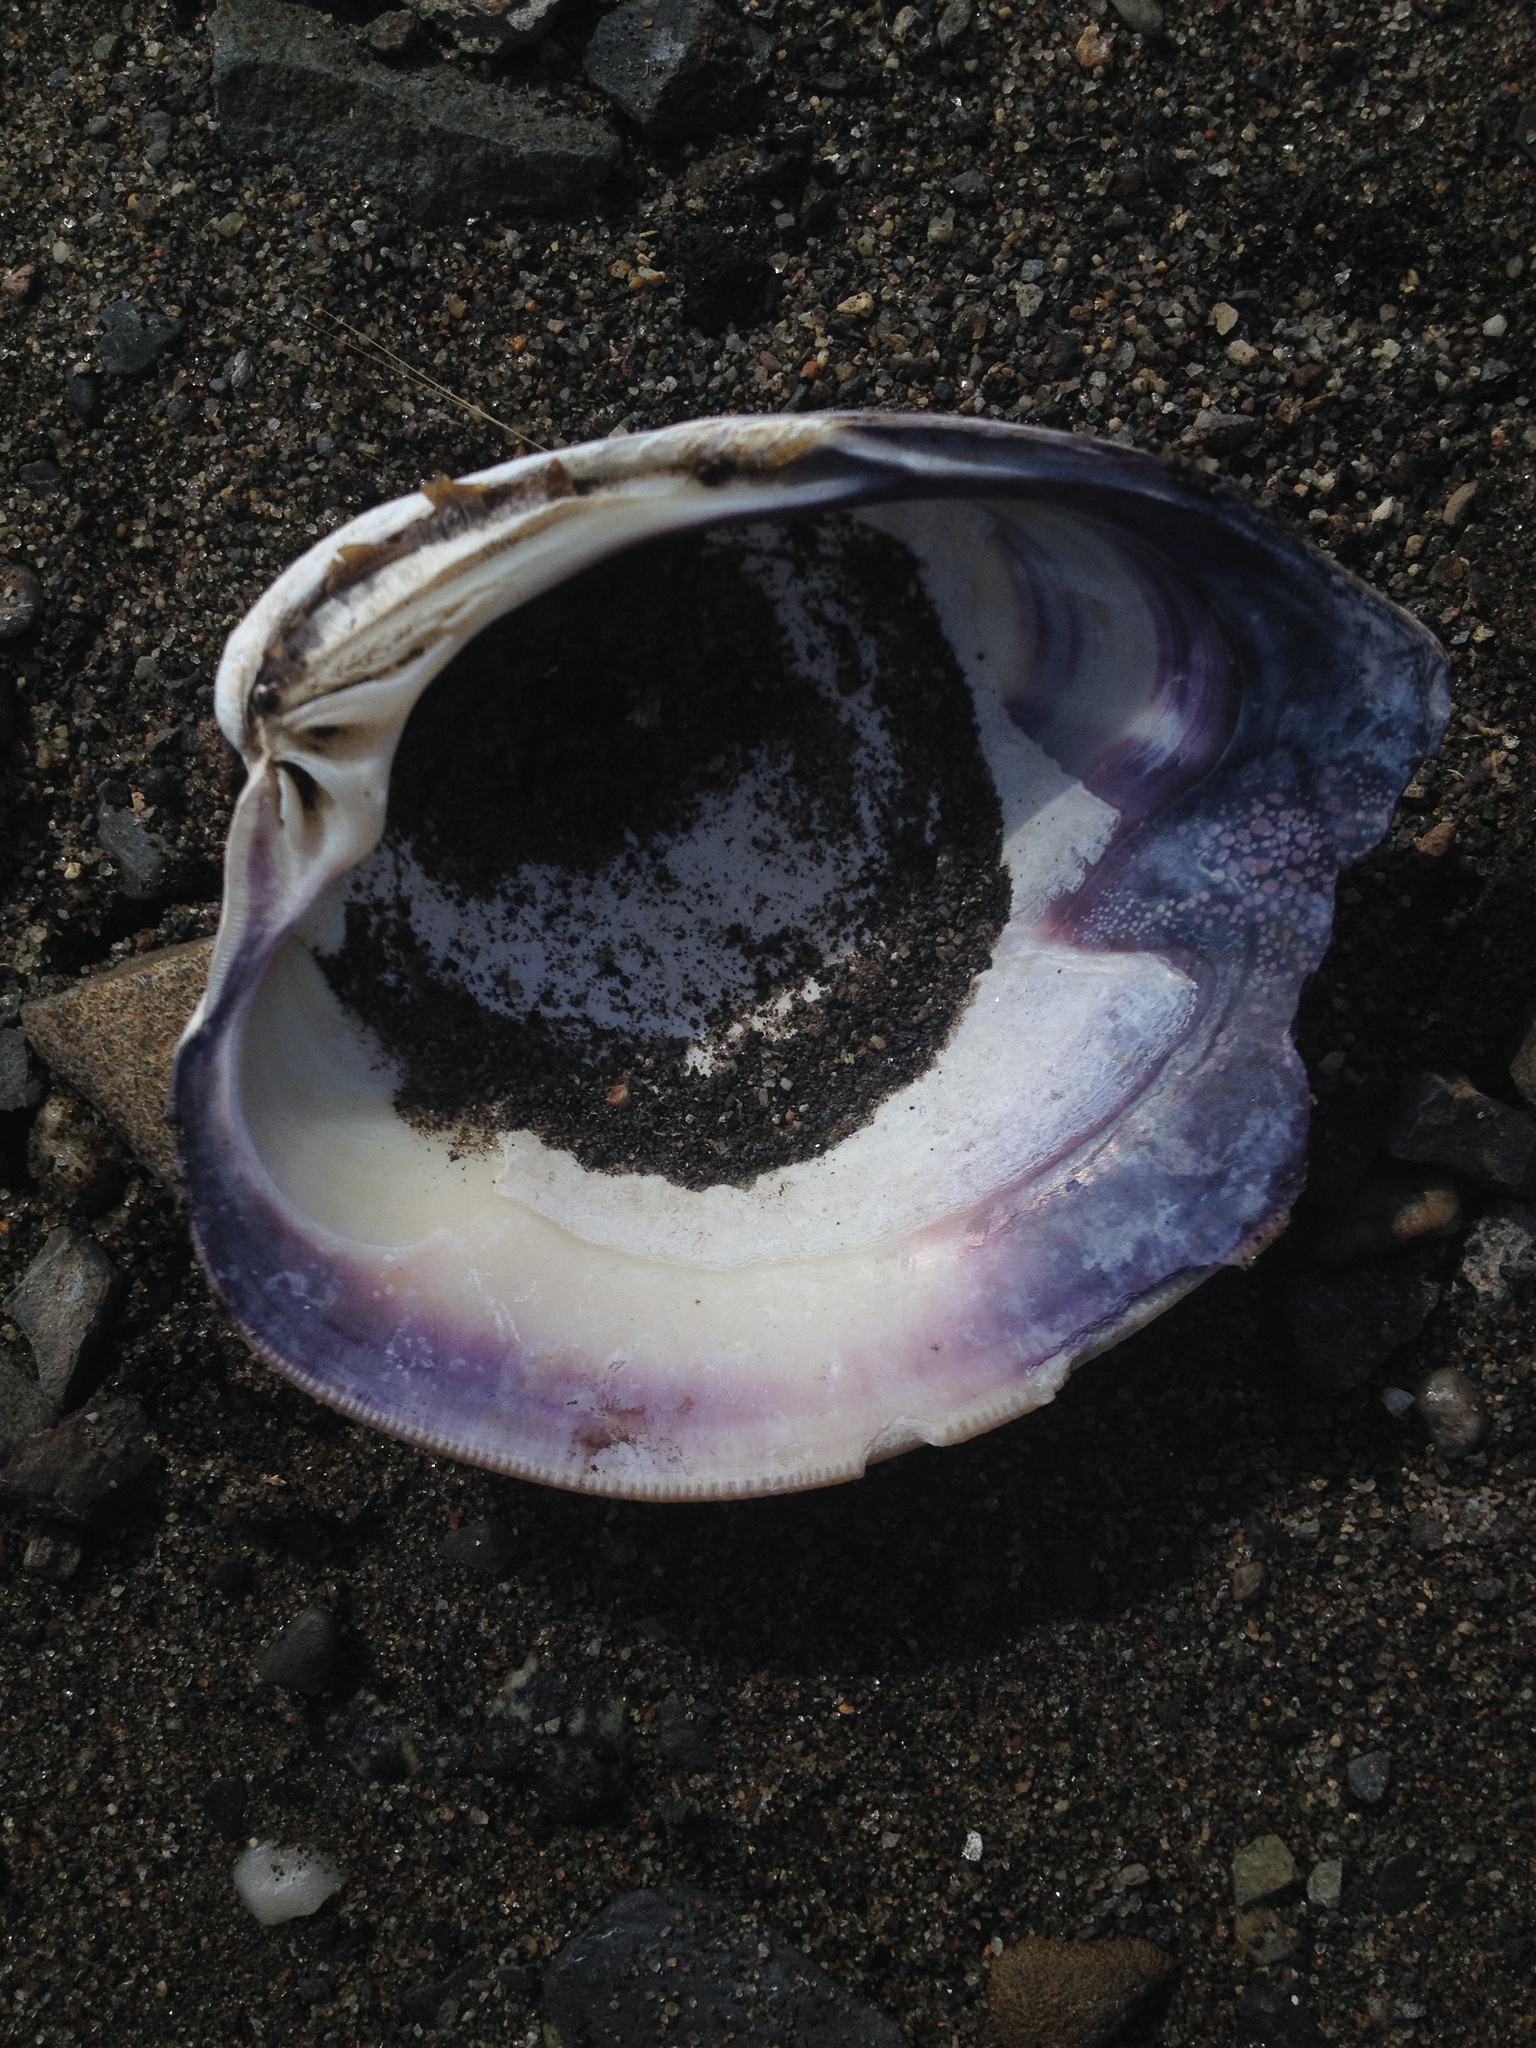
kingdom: Animalia
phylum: Mollusca
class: Bivalvia
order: Venerida
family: Veneridae
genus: Mercenaria
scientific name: Mercenaria mercenaria
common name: American hard-shelled clam
